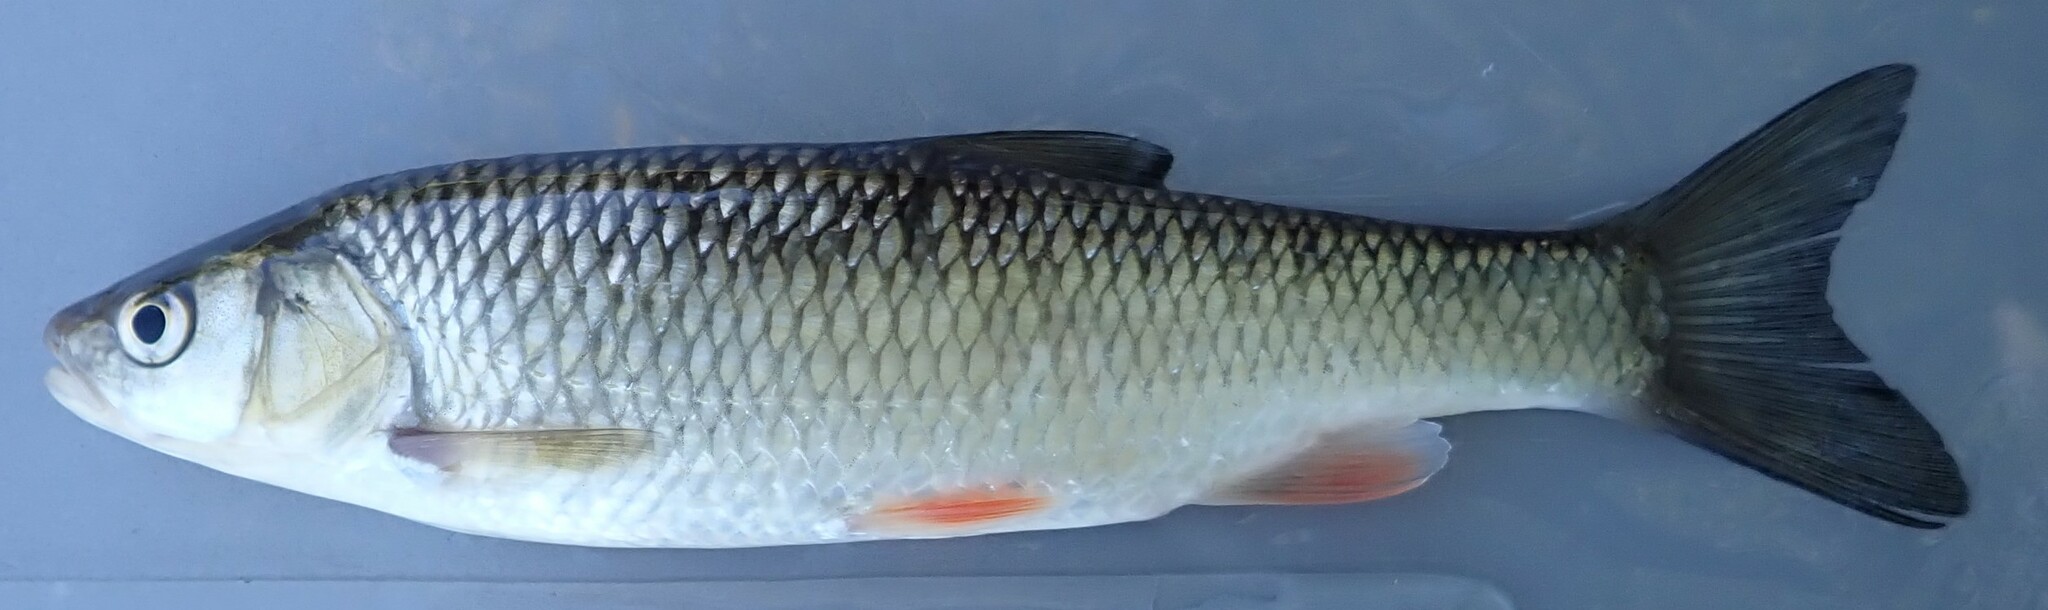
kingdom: Animalia
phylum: Chordata
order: Cypriniformes
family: Cyprinidae
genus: Squalius
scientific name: Squalius cephalus
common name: Chub
